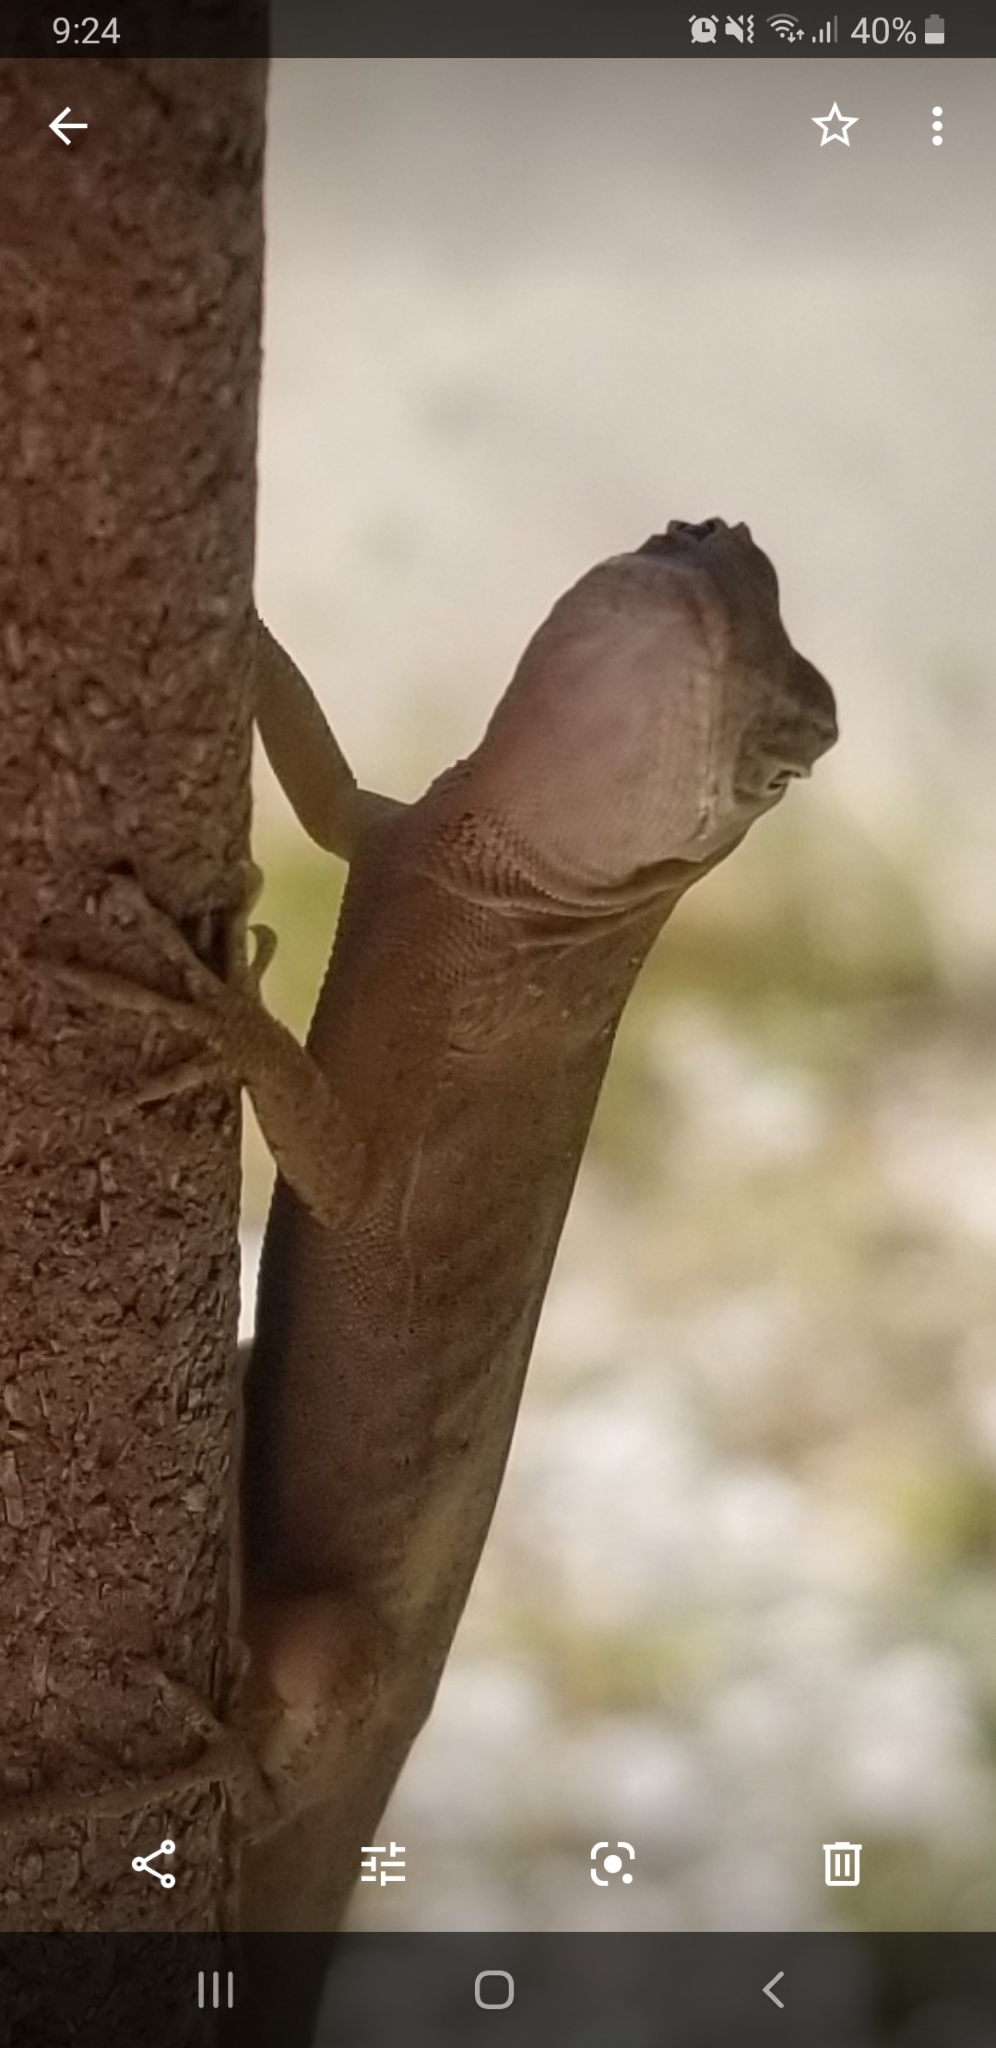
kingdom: Animalia
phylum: Chordata
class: Squamata
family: Dactyloidae
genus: Anolis
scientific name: Anolis sagrei
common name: Brown anole
